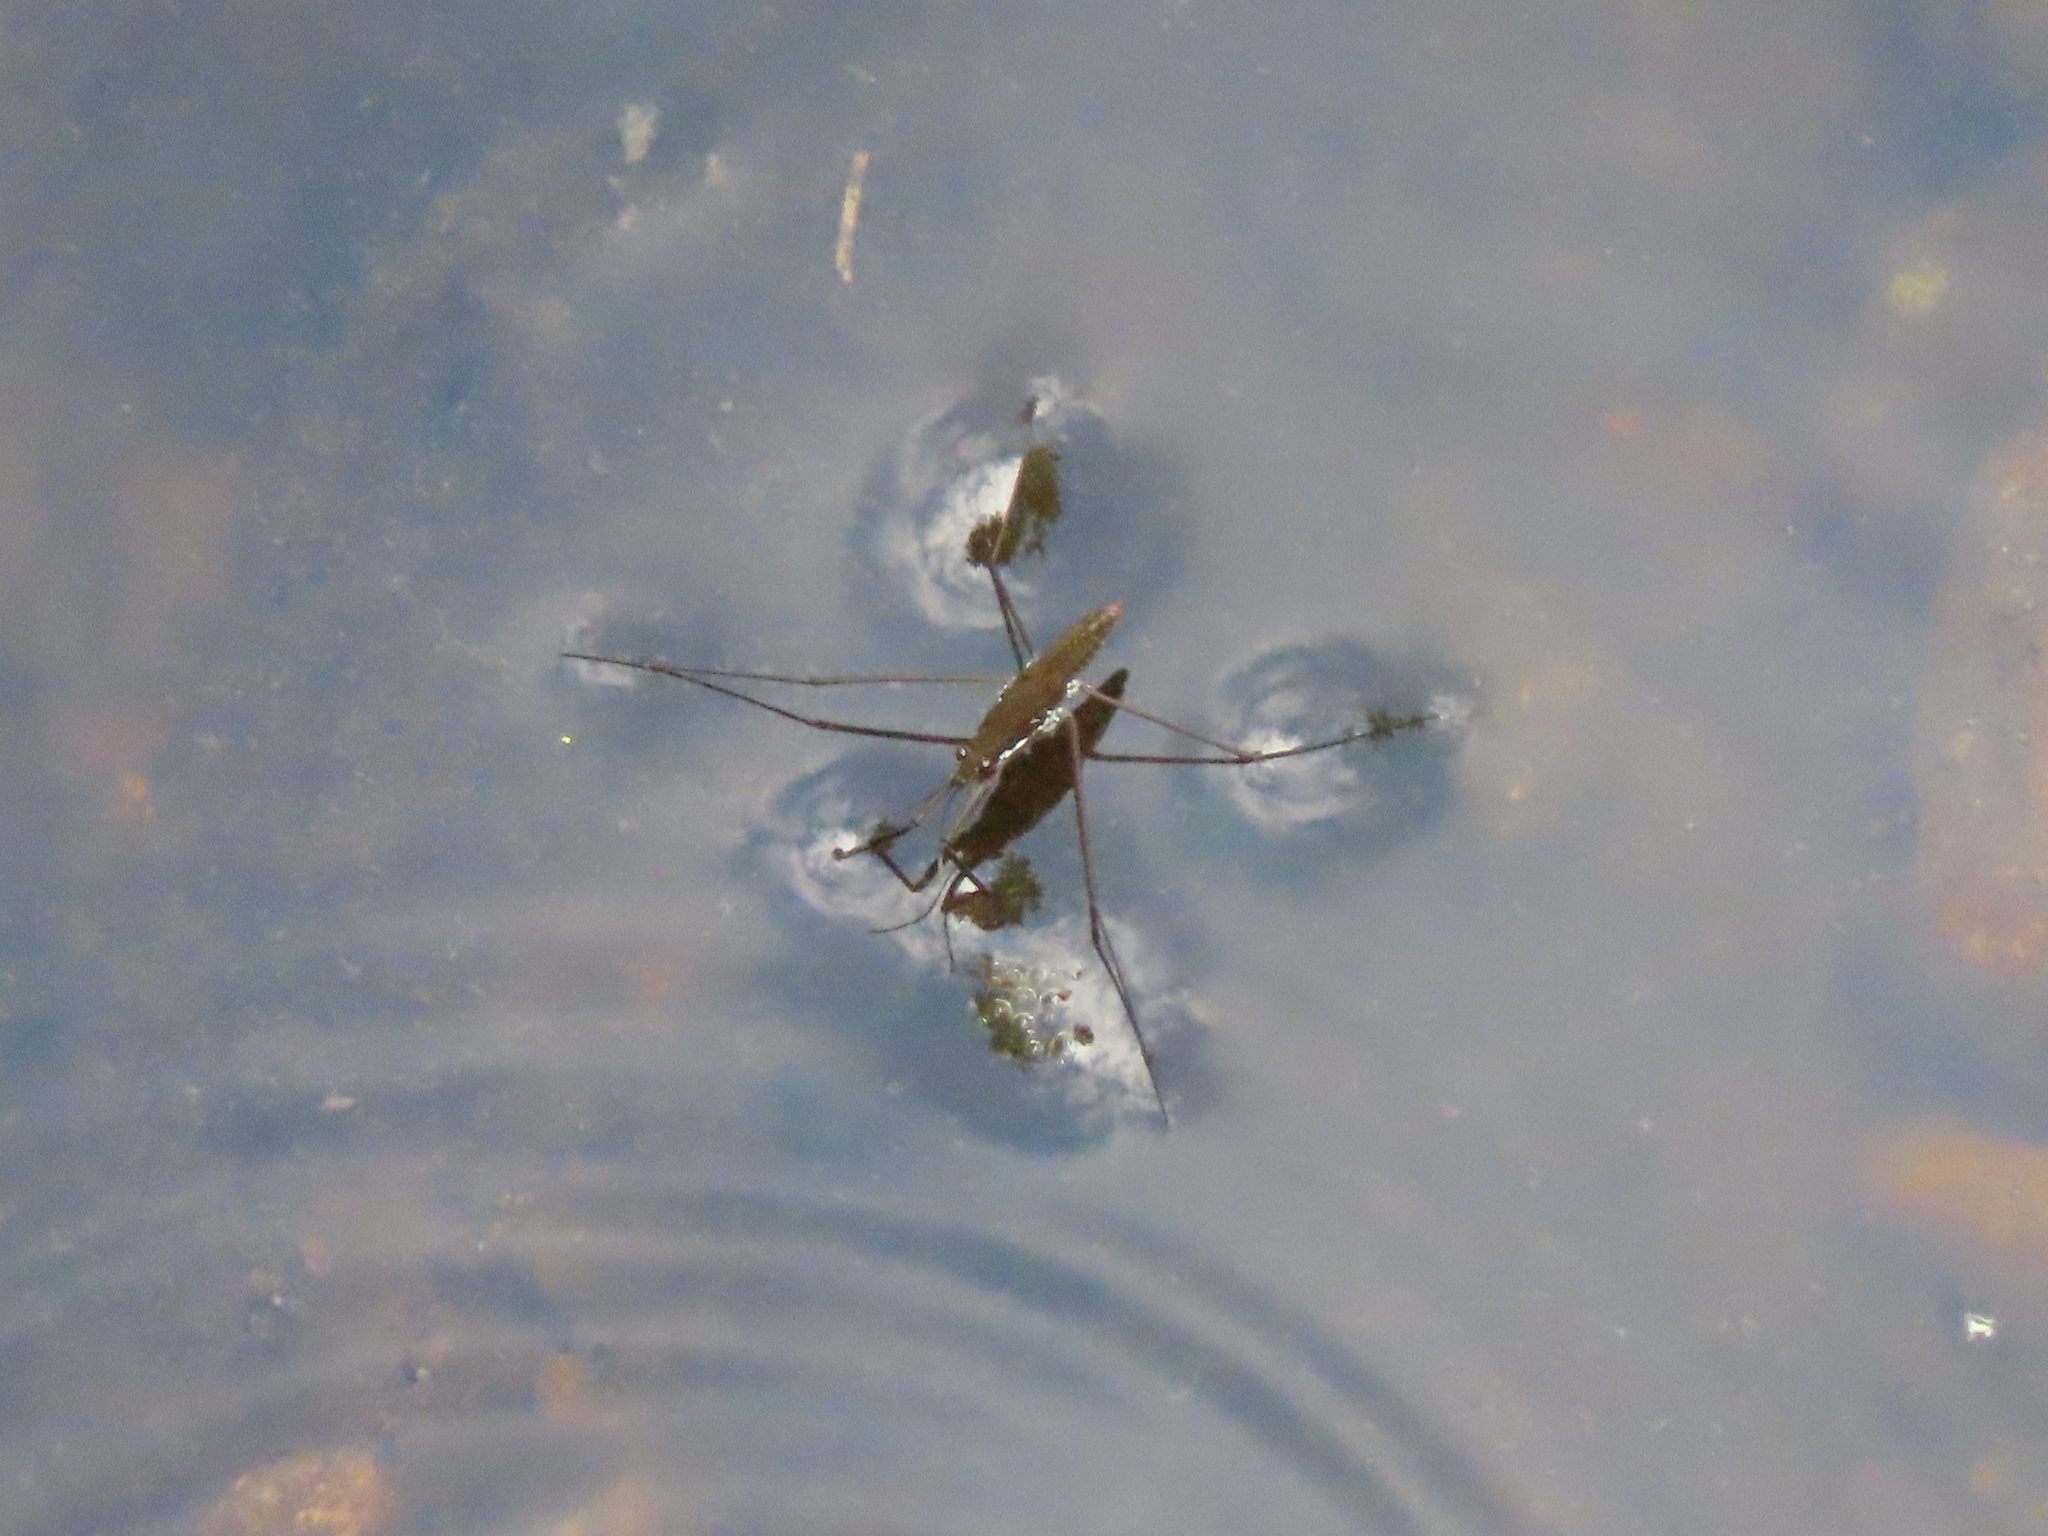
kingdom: Animalia
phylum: Arthropoda
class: Insecta
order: Hemiptera
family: Gerridae
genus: Aquarius
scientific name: Aquarius remigis
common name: Common water strider
